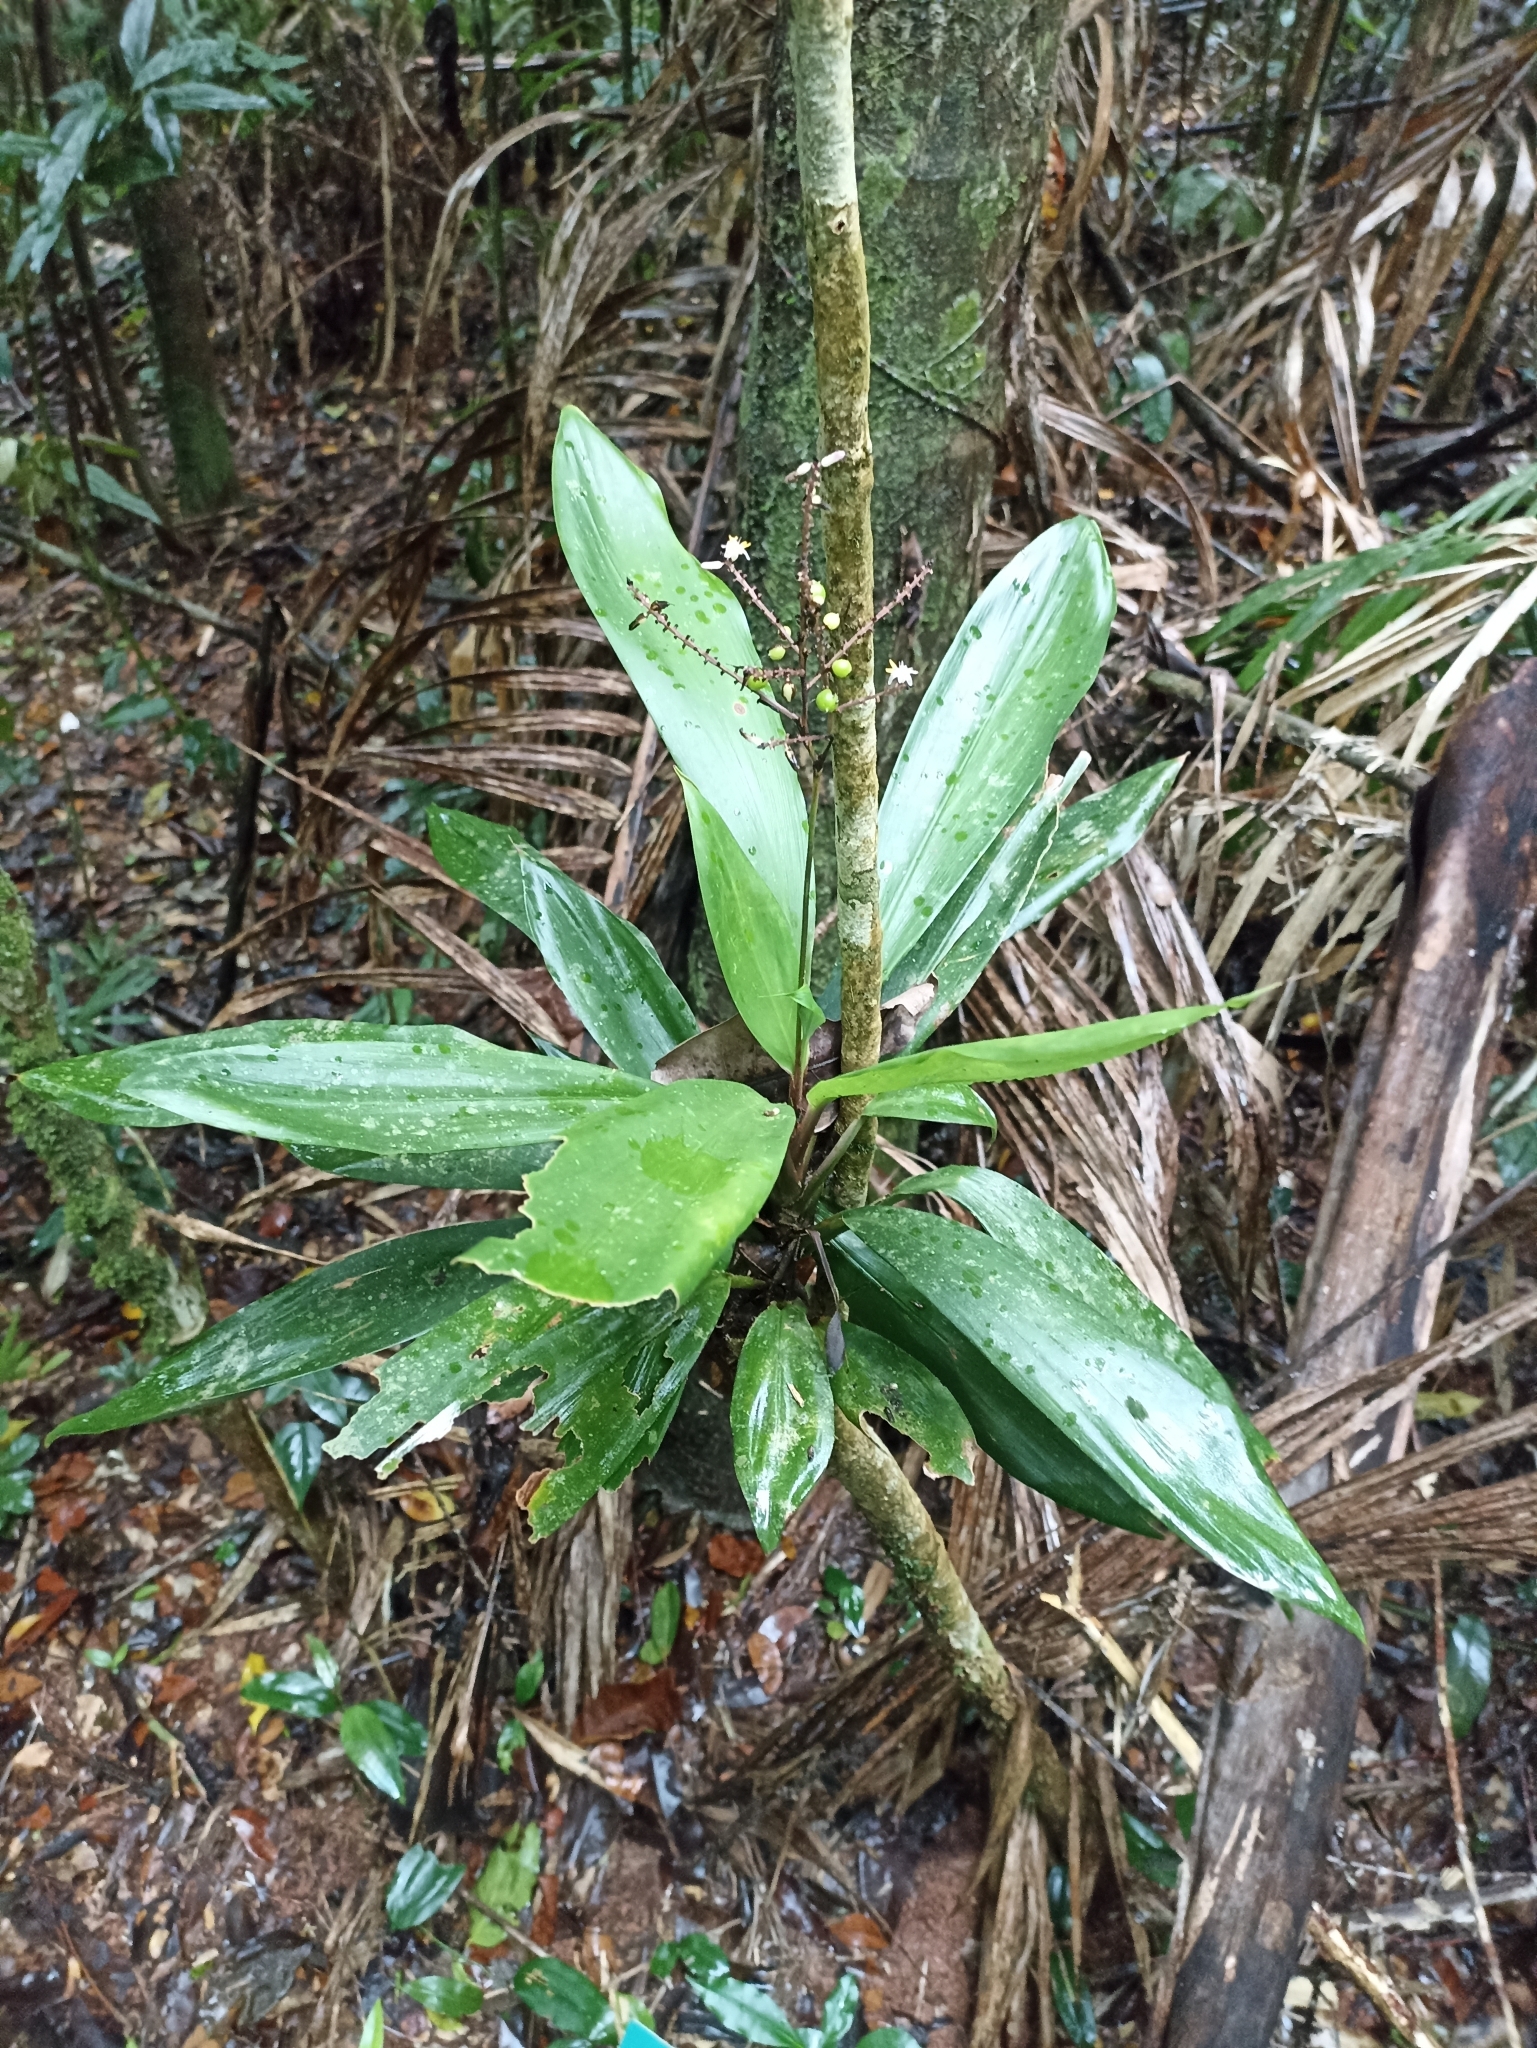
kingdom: Plantae
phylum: Tracheophyta
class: Liliopsida
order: Asparagales
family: Asparagaceae
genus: Cordyline
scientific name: Cordyline cannifolia
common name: Palm-lily
